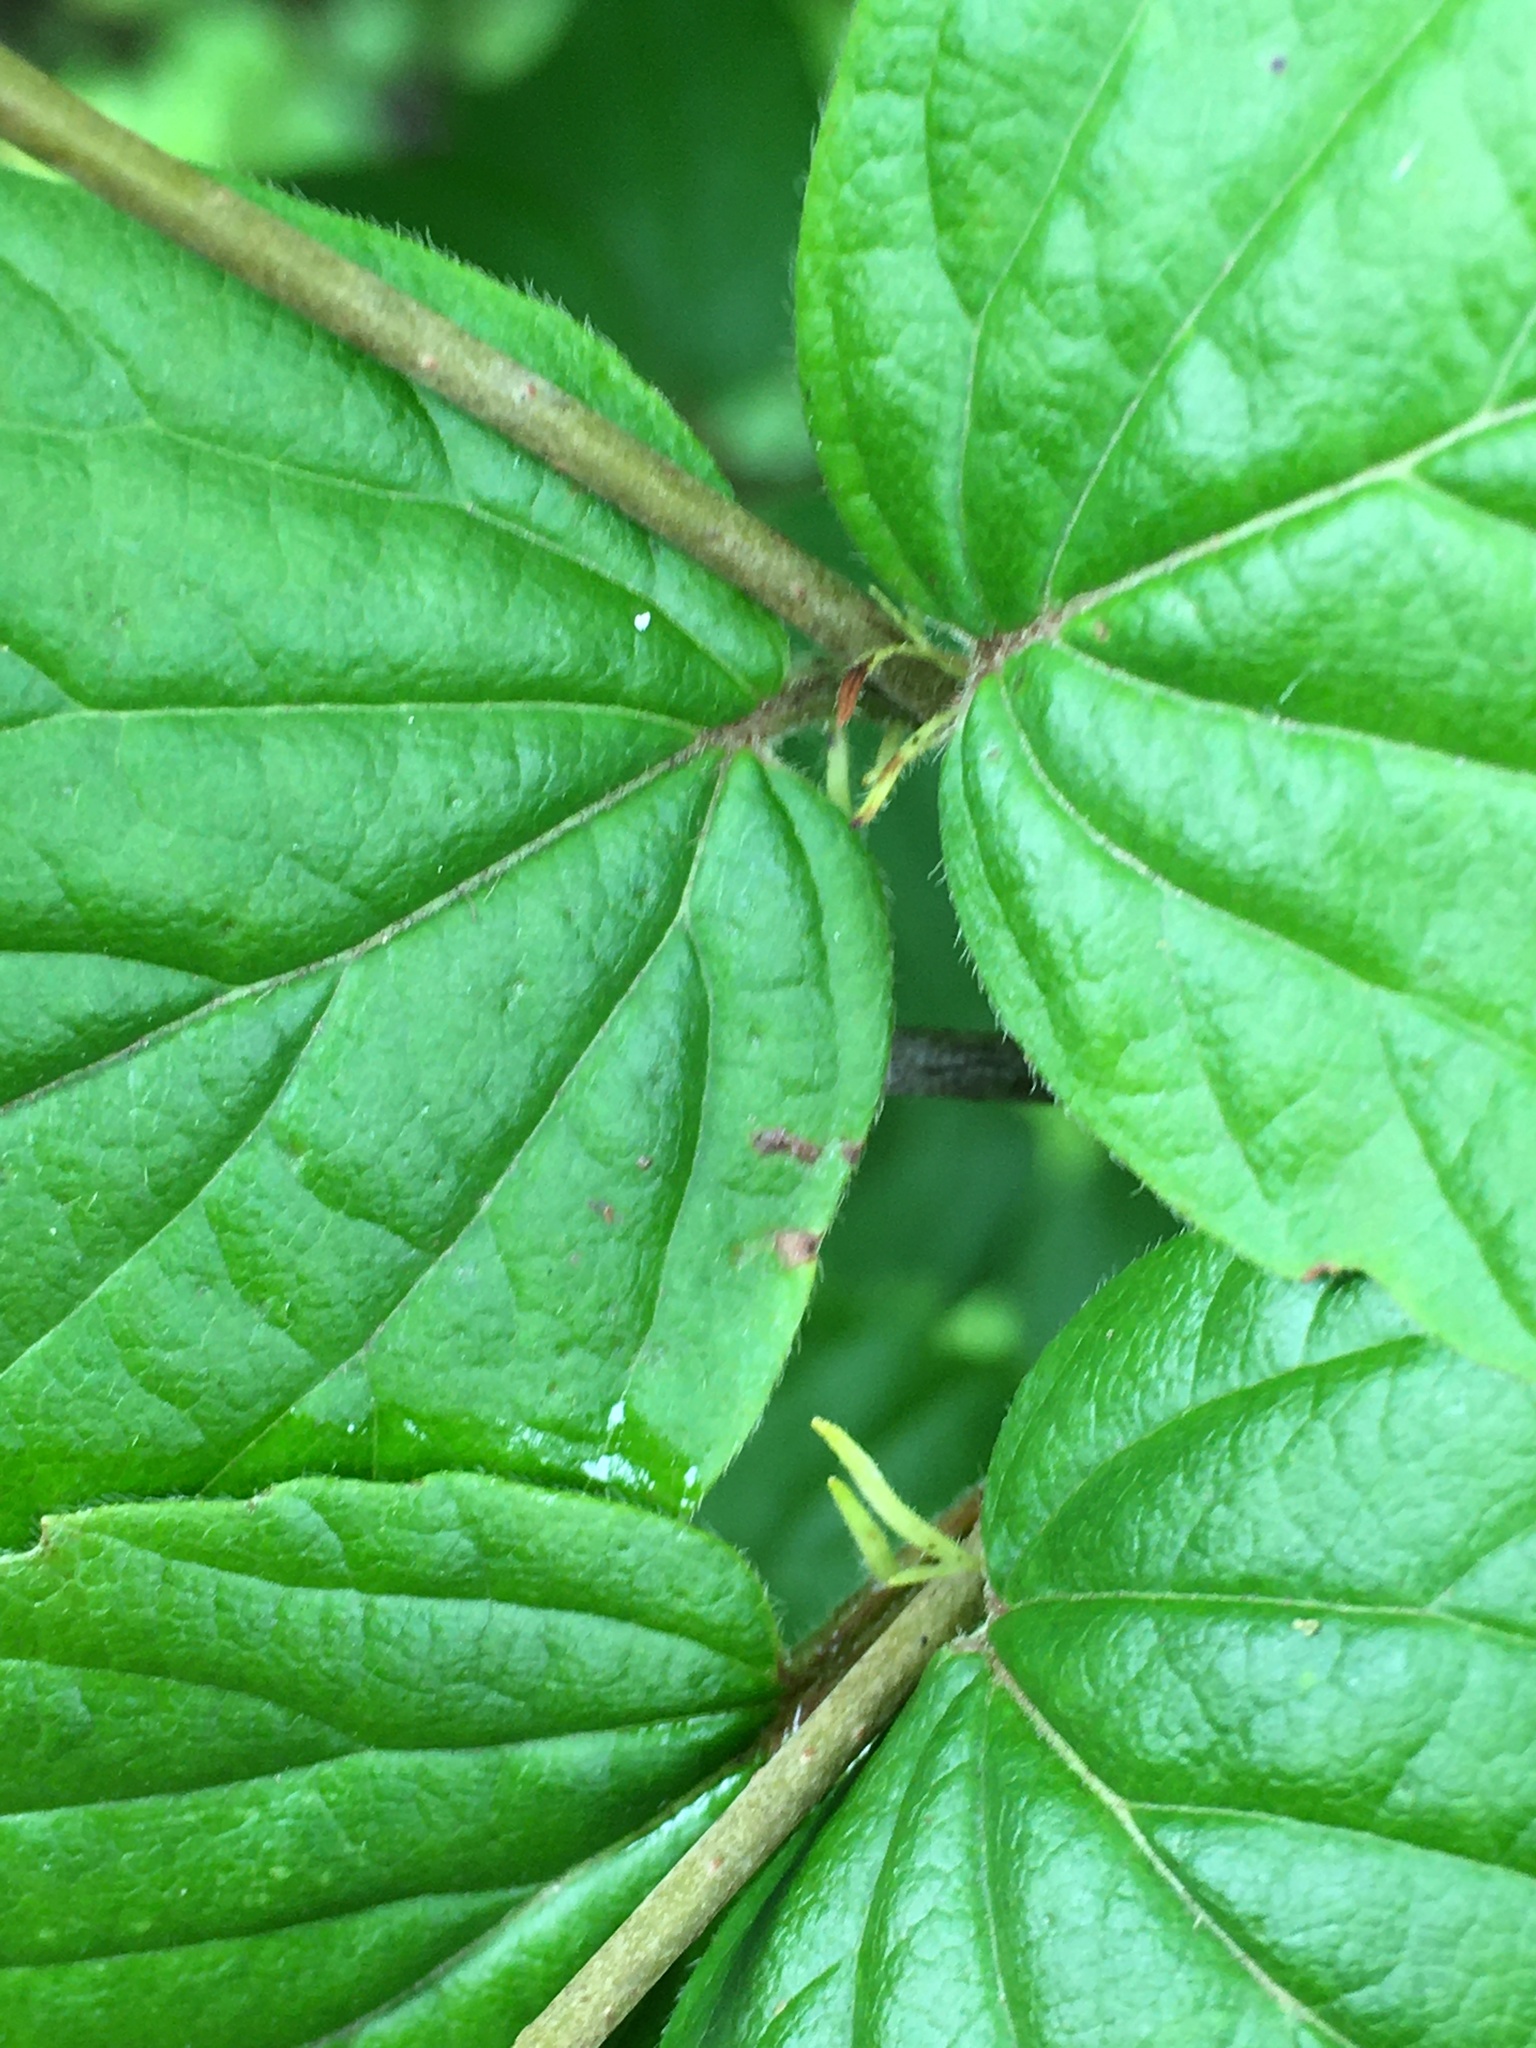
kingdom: Plantae
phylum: Tracheophyta
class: Magnoliopsida
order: Dipsacales
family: Viburnaceae
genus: Viburnum
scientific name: Viburnum rafinesqueanum
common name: Downy arrow-wood
